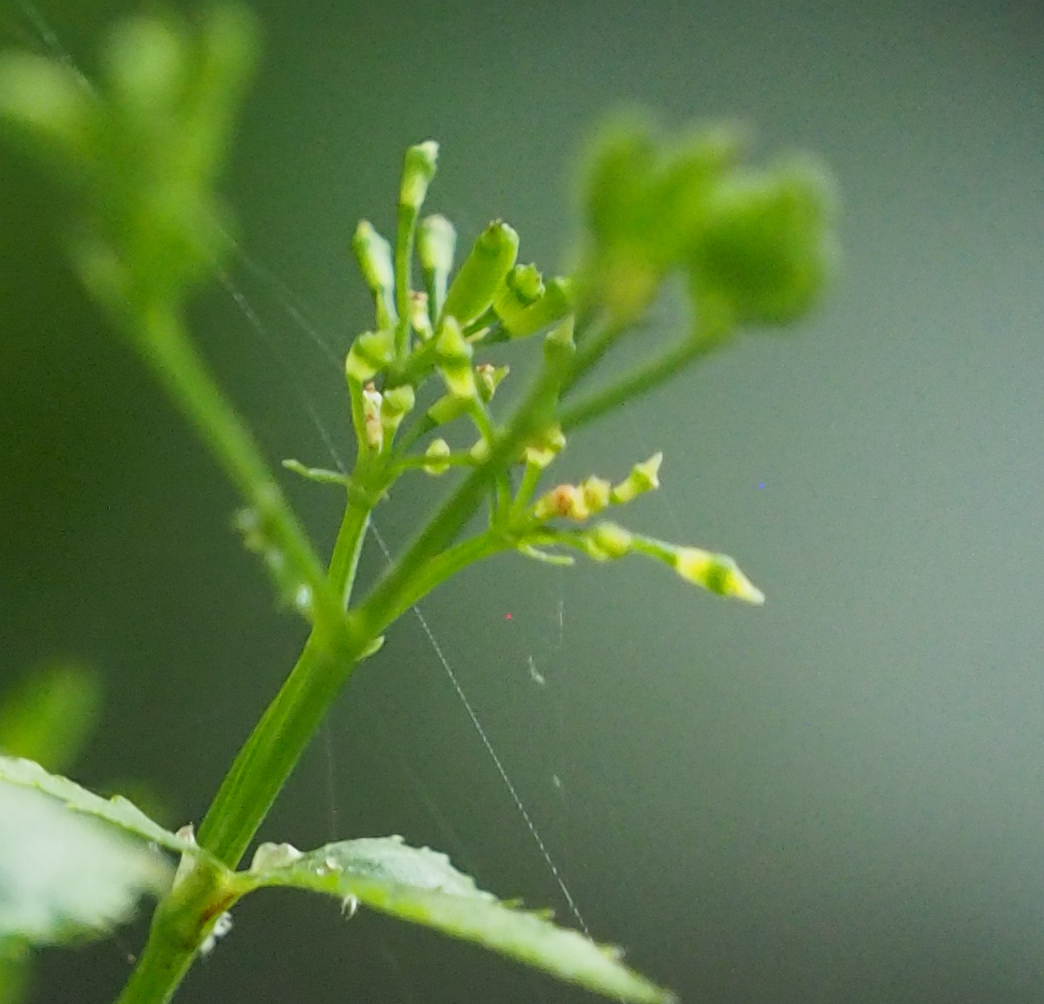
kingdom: Plantae
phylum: Tracheophyta
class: Magnoliopsida
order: Apiales
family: Apiaceae
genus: Cryptotaenia
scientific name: Cryptotaenia canadensis
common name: Honewort
